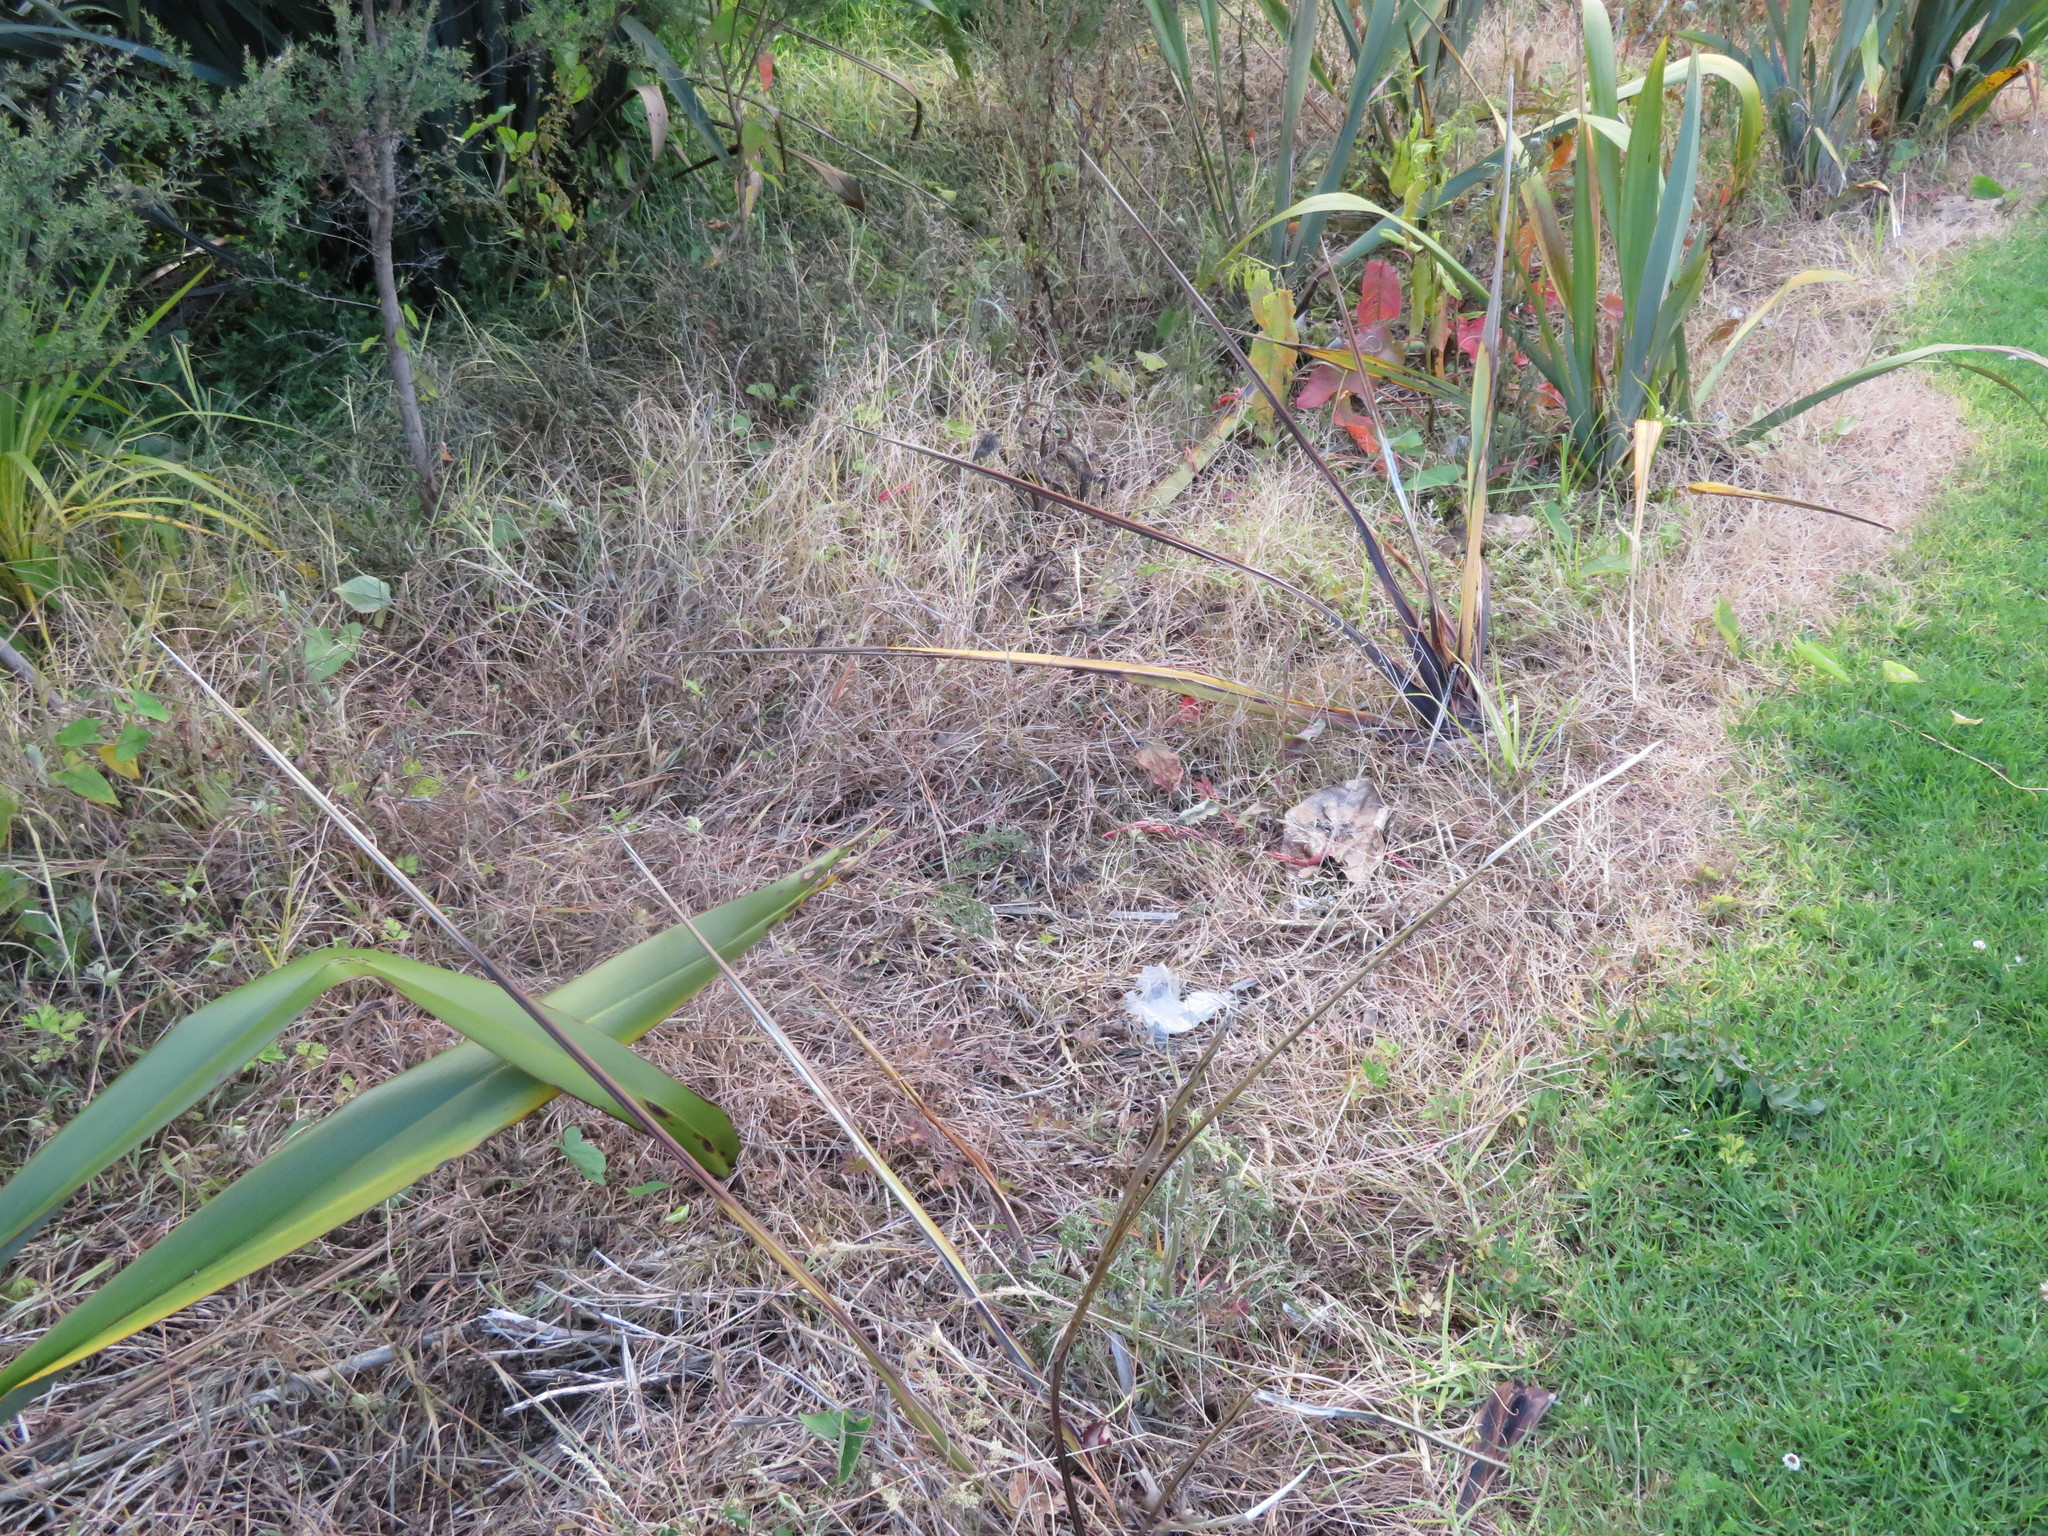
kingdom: Plantae
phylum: Tracheophyta
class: Liliopsida
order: Poales
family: Poaceae
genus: Cenchrus
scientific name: Cenchrus clandestinus
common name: Kikuyugrass
